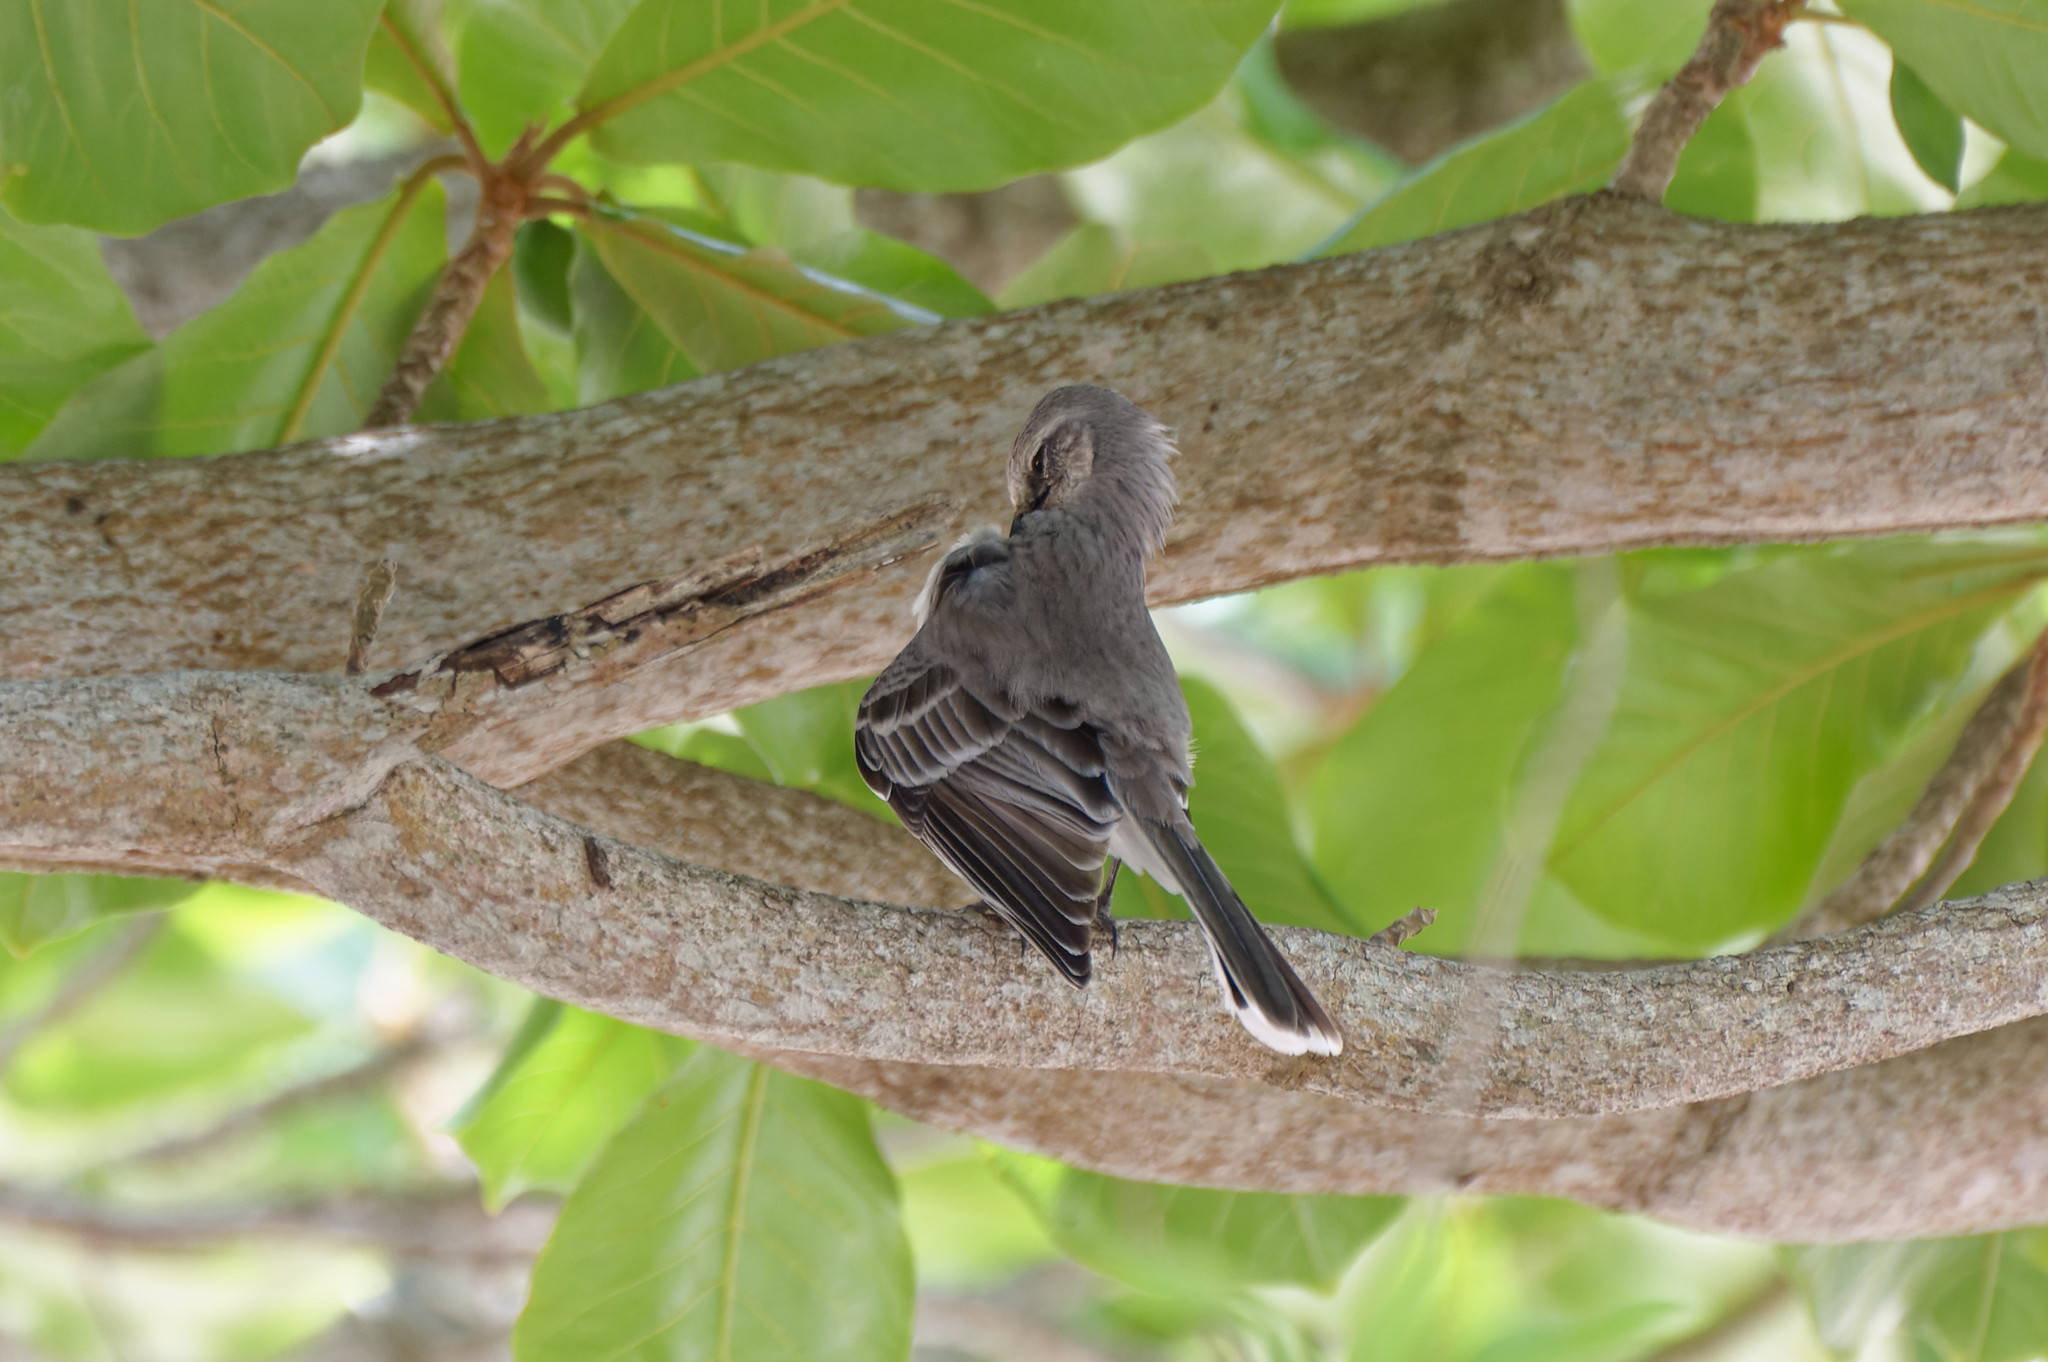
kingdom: Animalia
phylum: Chordata
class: Aves
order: Passeriformes
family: Mimidae
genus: Mimus
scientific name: Mimus gilvus
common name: Tropical mockingbird
